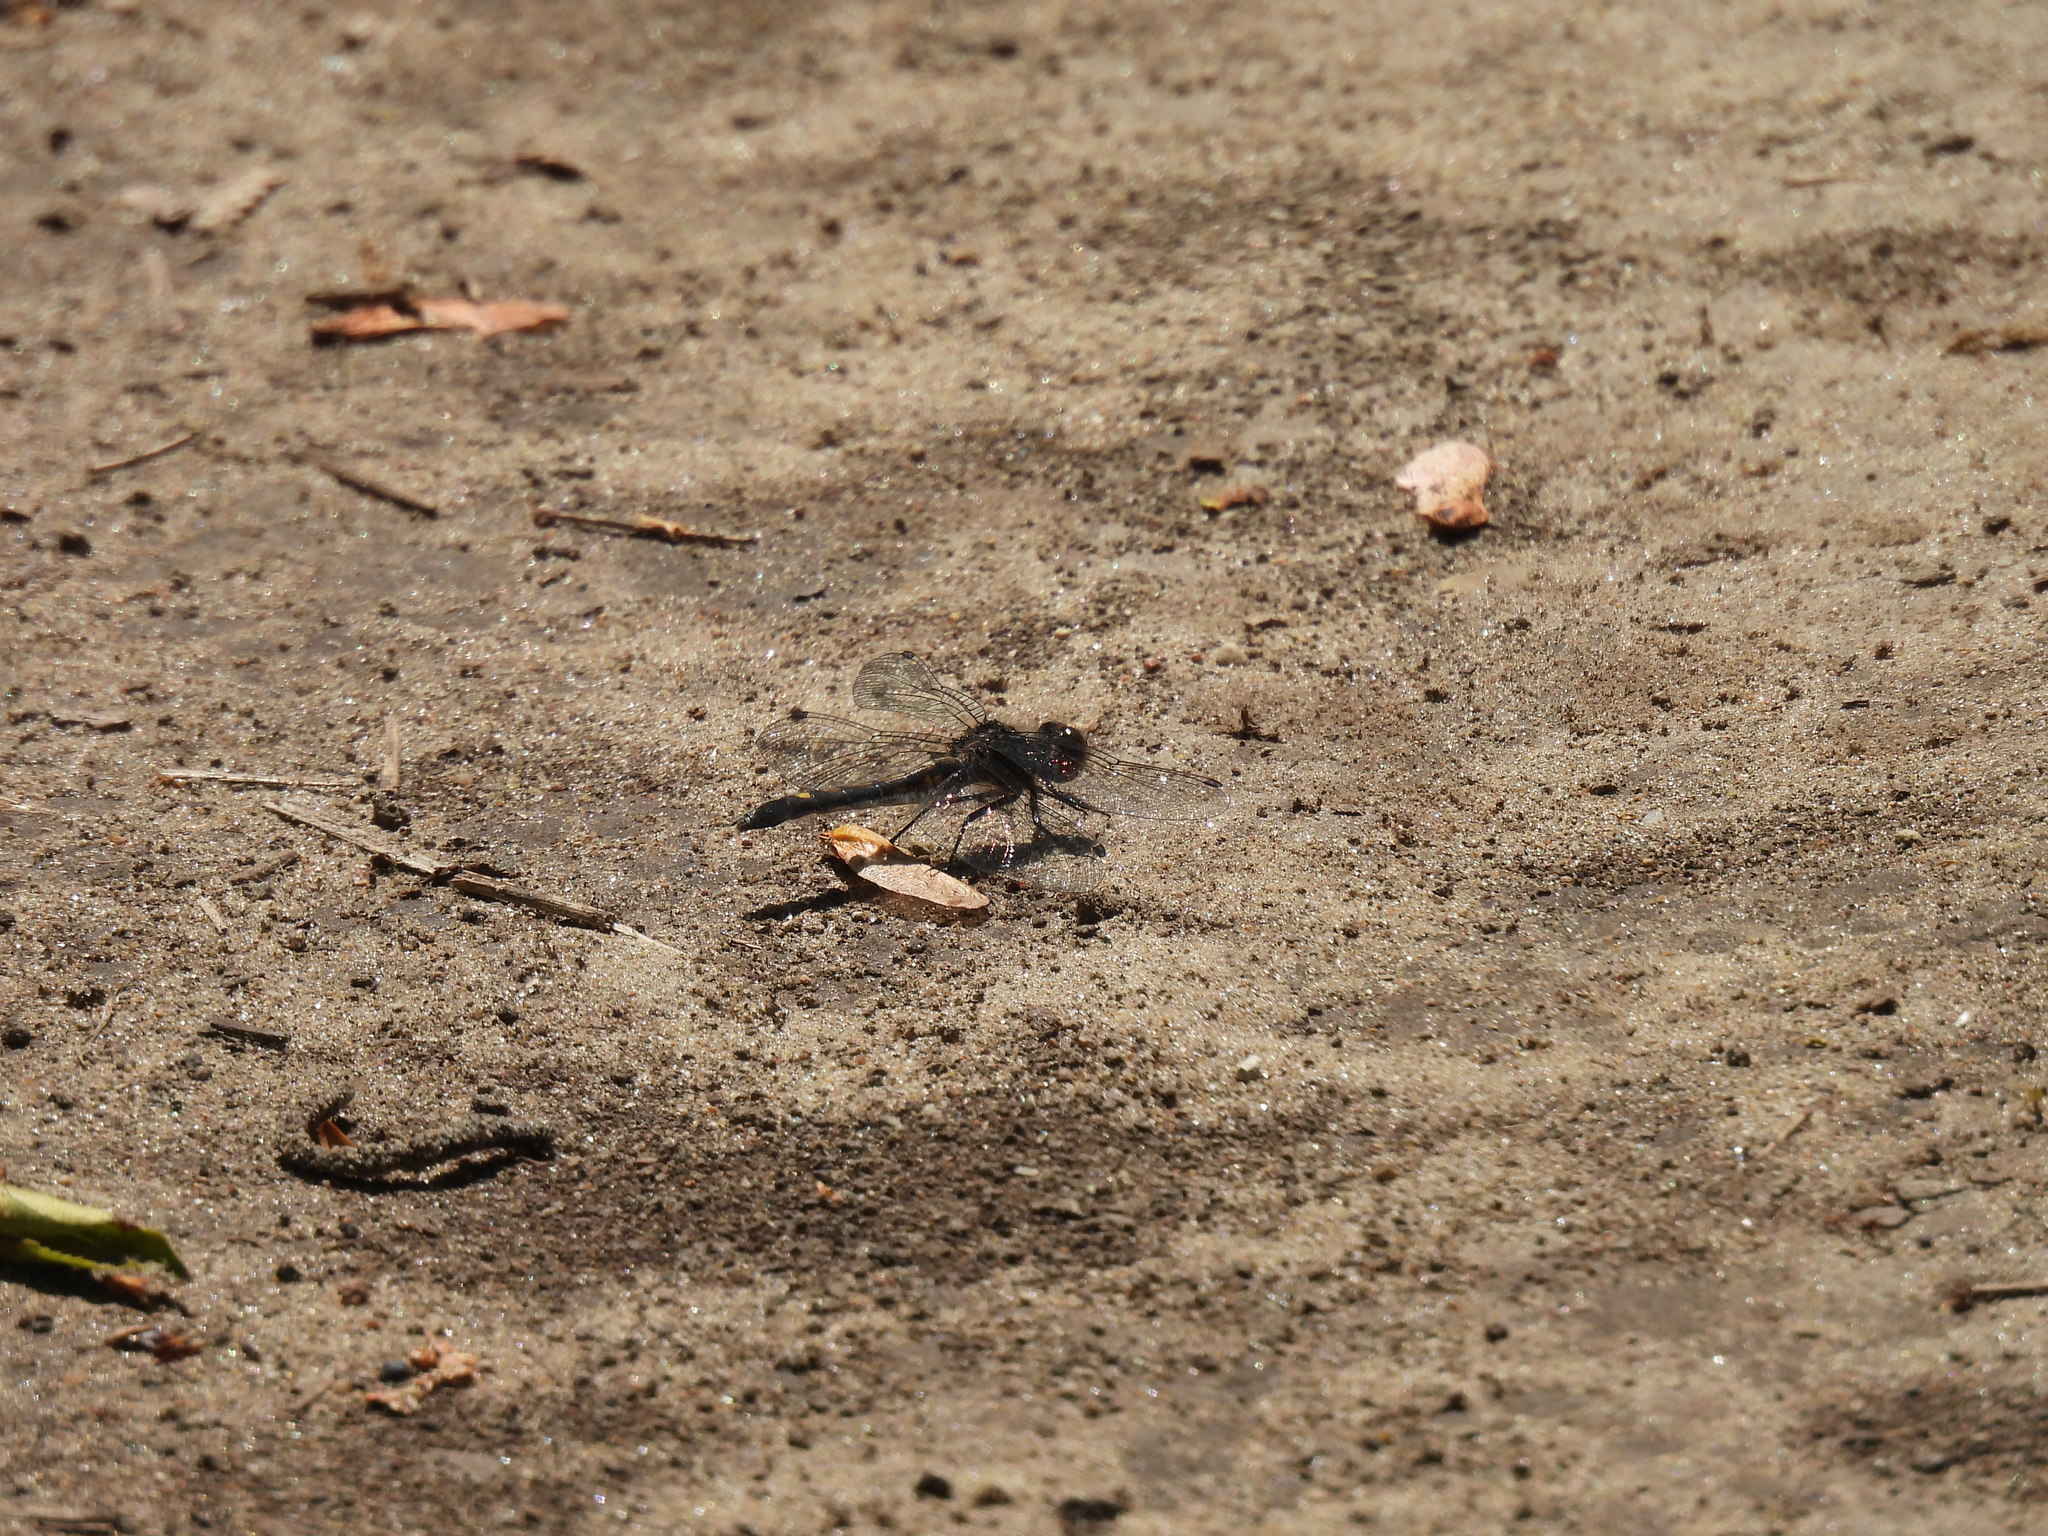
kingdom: Animalia
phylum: Arthropoda
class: Insecta
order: Odonata
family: Libellulidae
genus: Leucorrhinia
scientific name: Leucorrhinia intacta
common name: Dot-tailed whiteface
